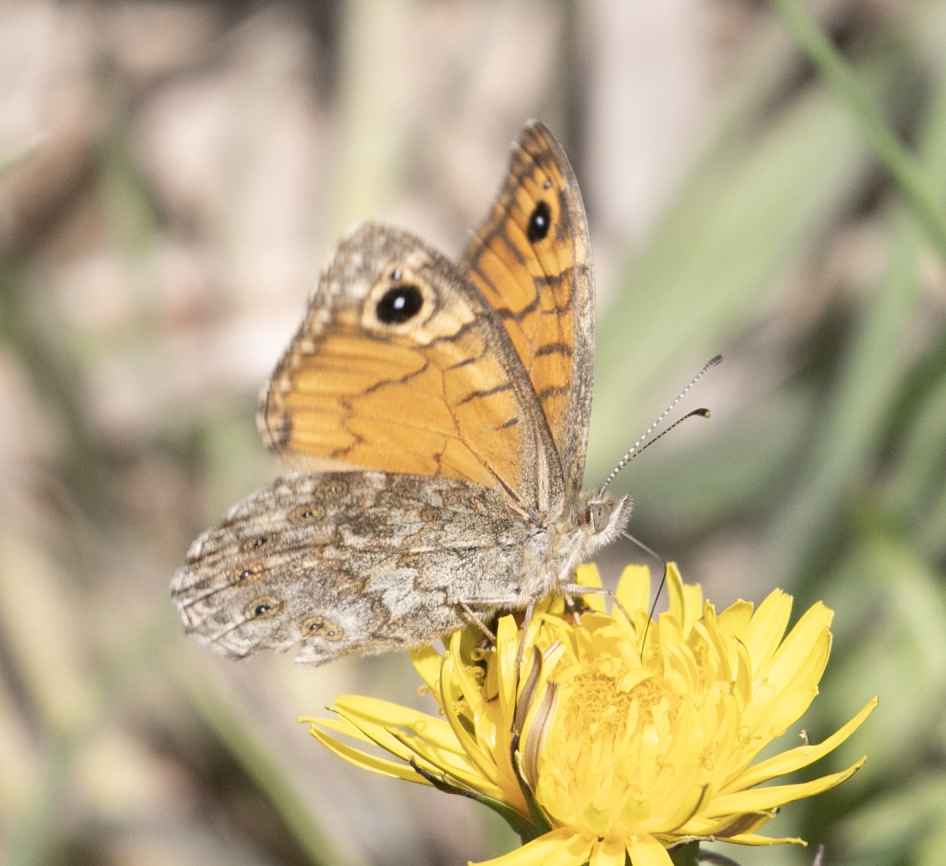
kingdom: Animalia
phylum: Arthropoda
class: Insecta
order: Lepidoptera
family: Nymphalidae
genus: Pararge
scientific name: Pararge Lasiommata megera
